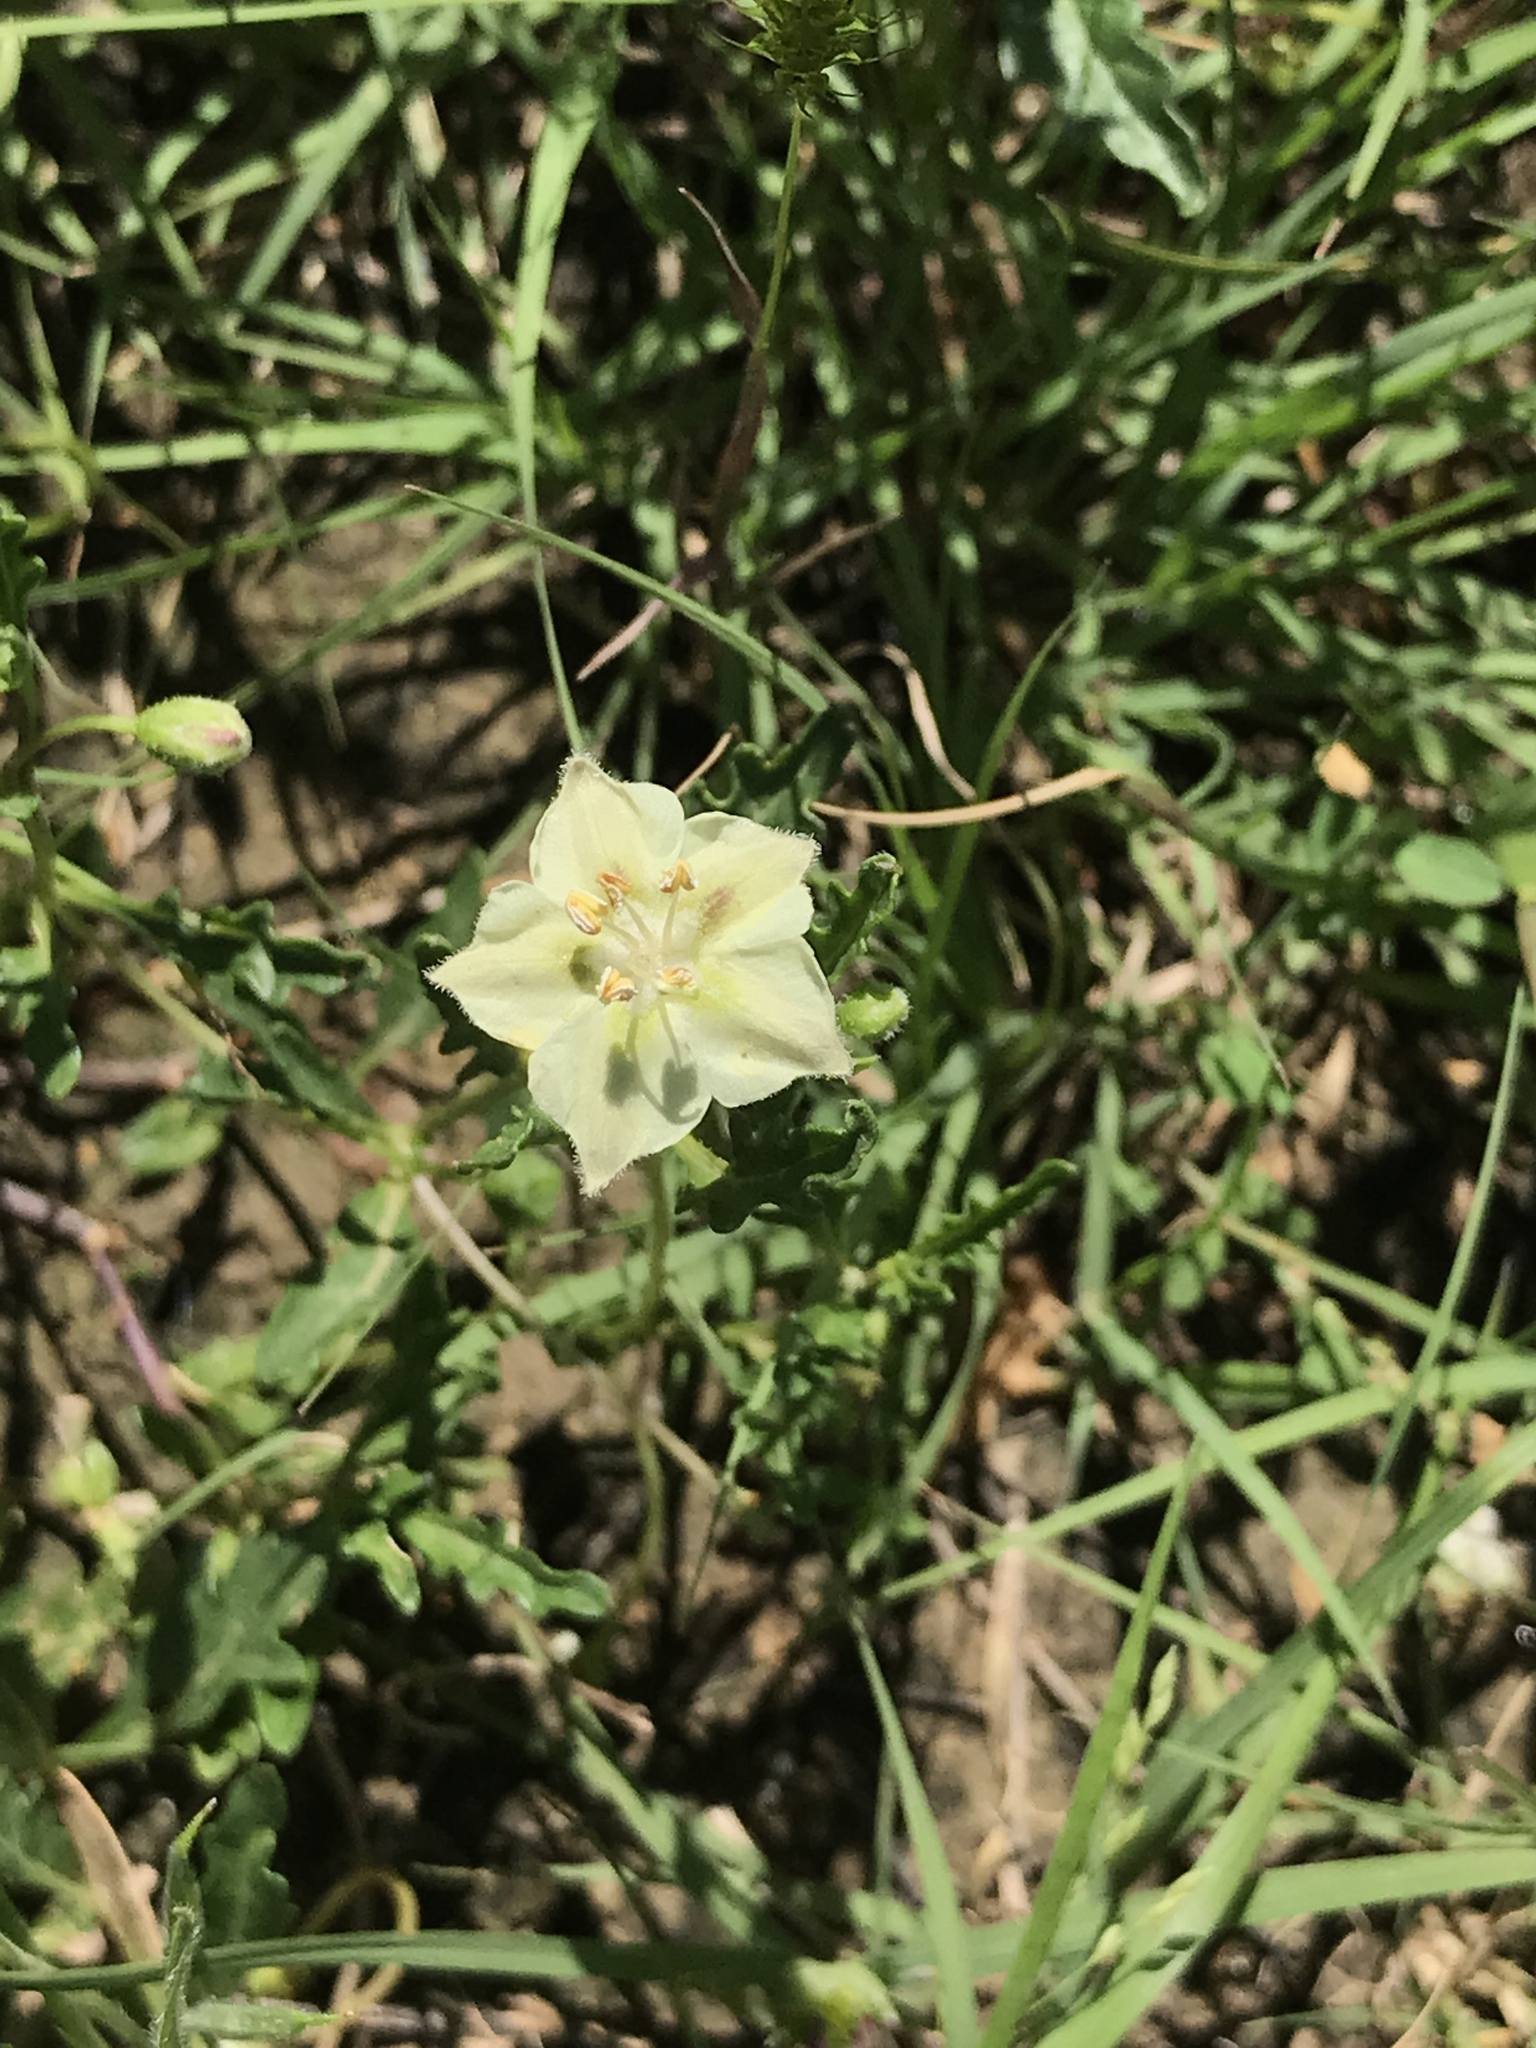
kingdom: Plantae
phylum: Tracheophyta
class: Magnoliopsida
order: Solanales
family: Solanaceae
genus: Chamaesaracha
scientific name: Chamaesaracha edwardsiana
